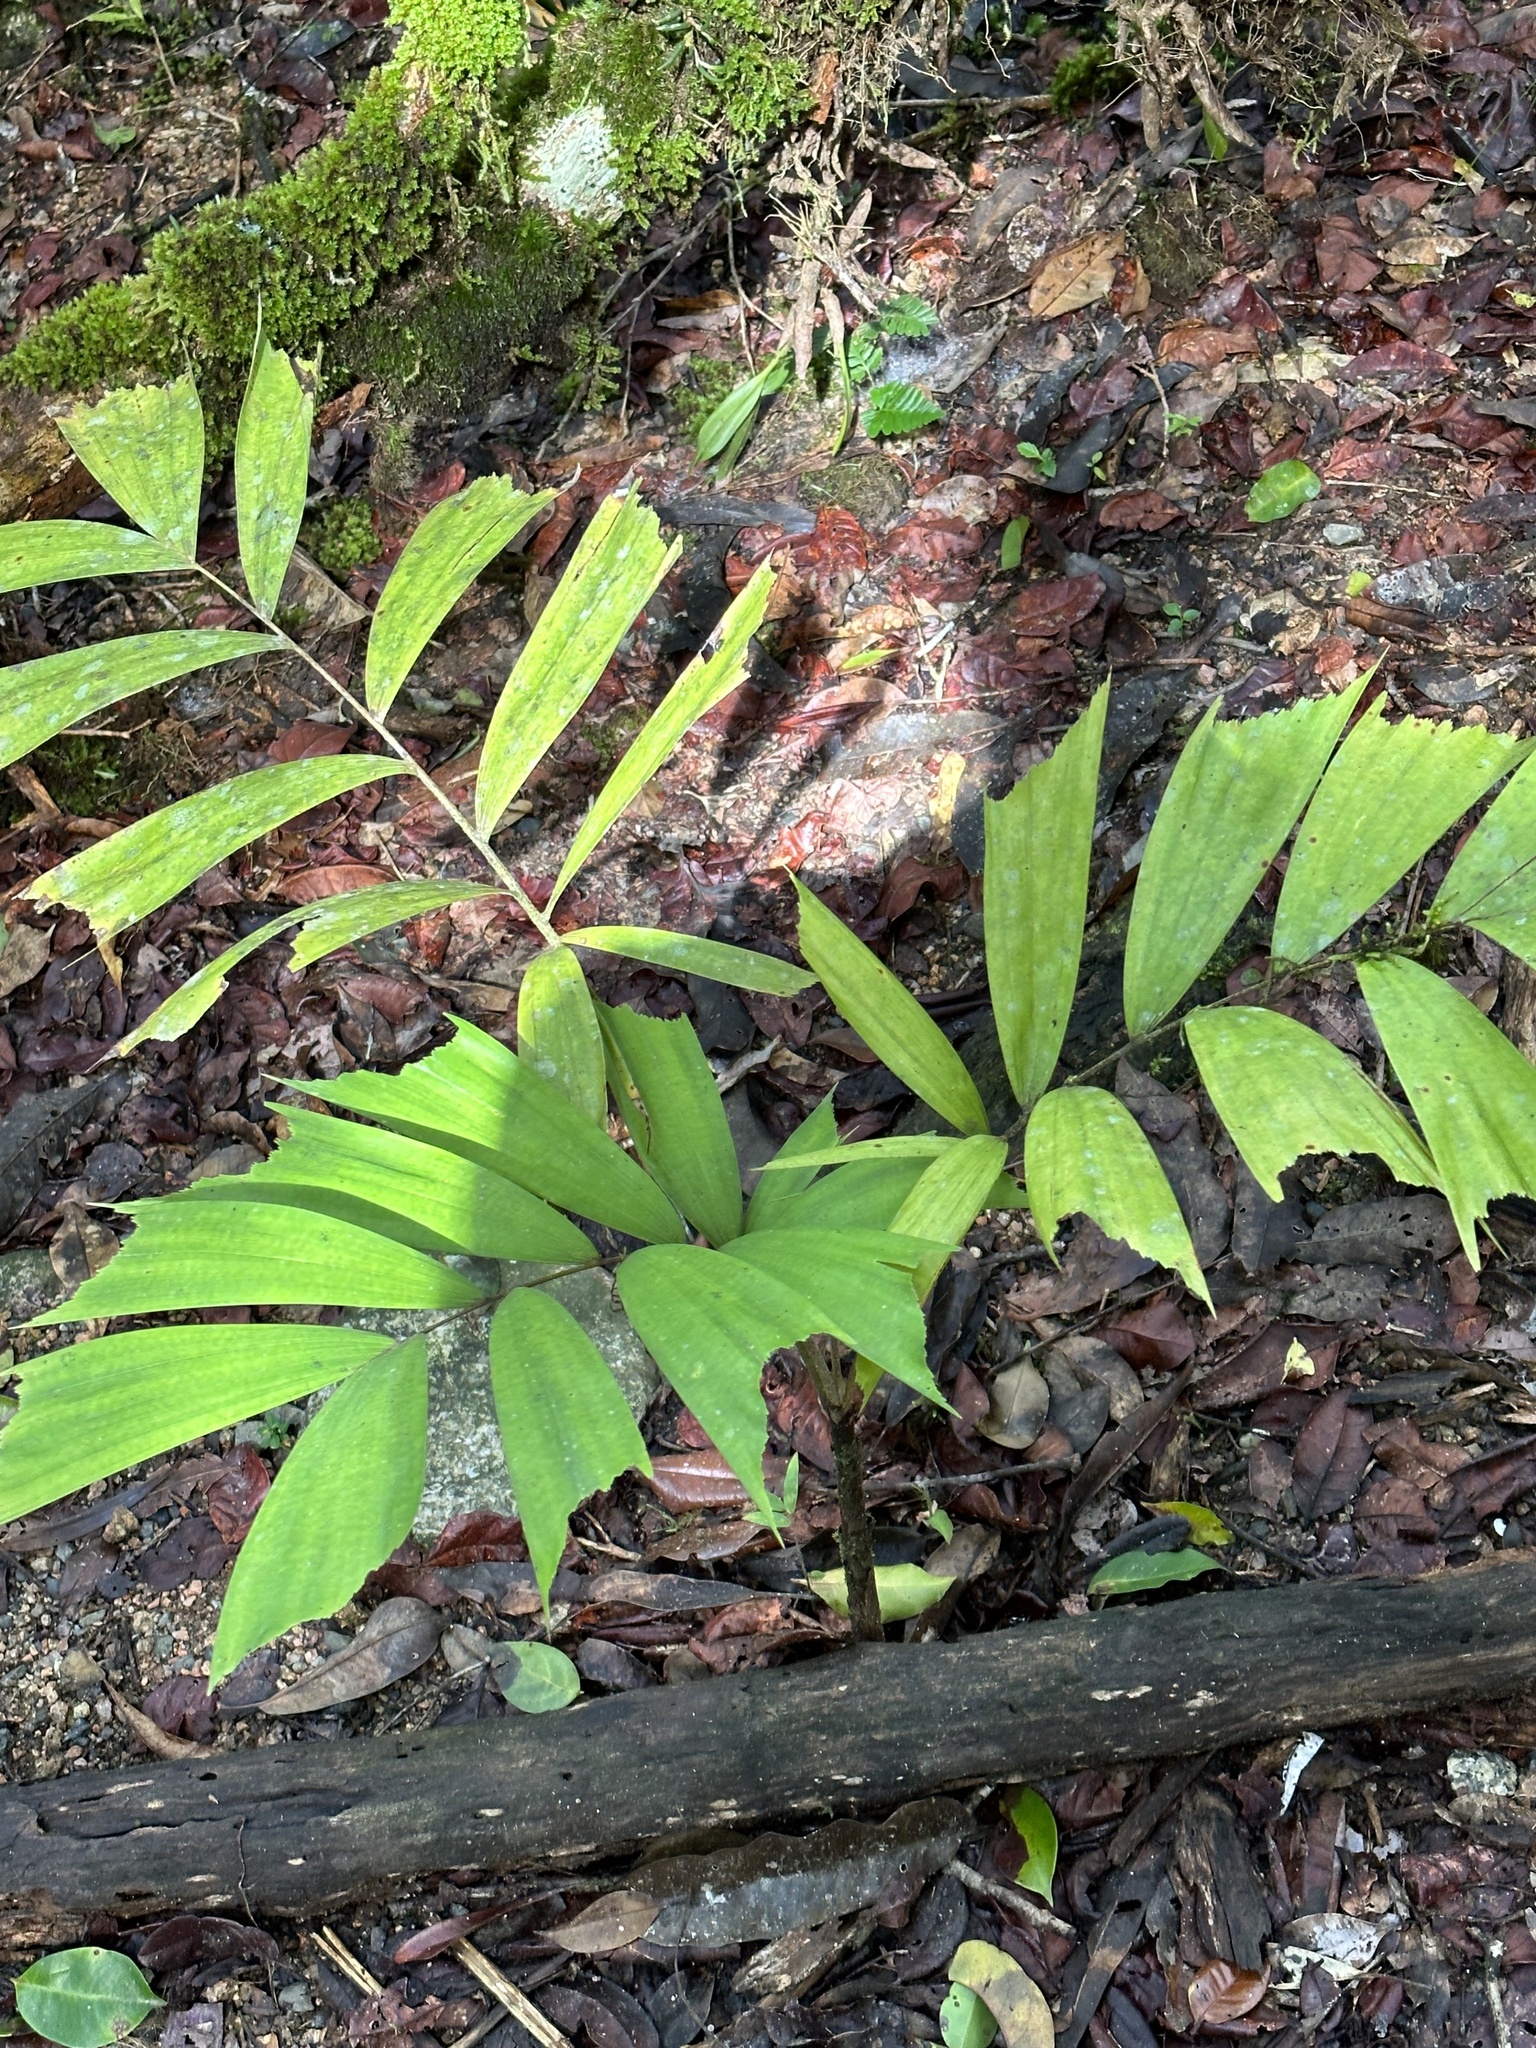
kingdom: Plantae
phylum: Tracheophyta
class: Liliopsida
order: Arecales
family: Arecaceae
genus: Normanbya
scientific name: Normanbya normanbyi
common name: Black palm
